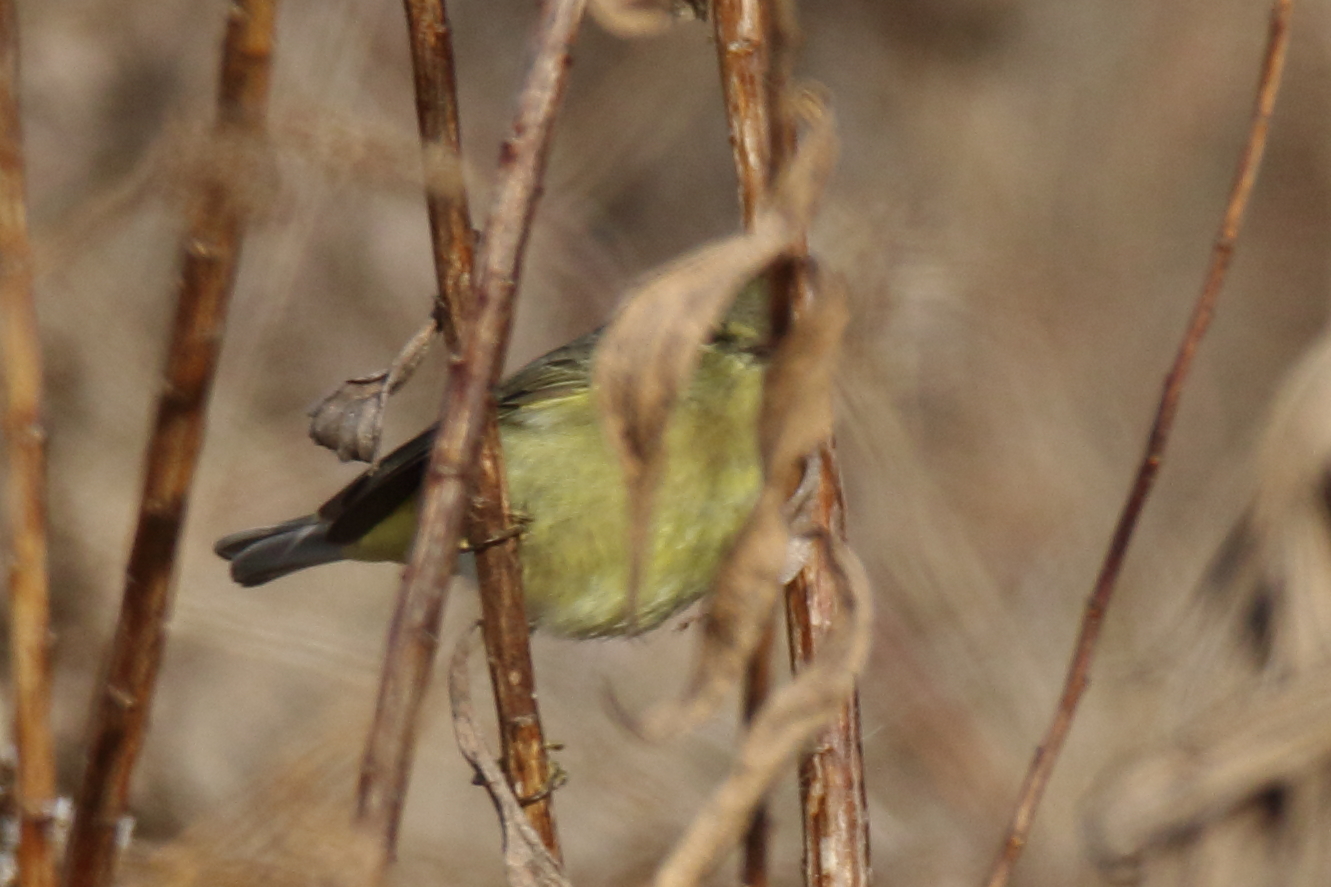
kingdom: Animalia
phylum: Chordata
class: Aves
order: Passeriformes
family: Parulidae
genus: Leiothlypis
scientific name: Leiothlypis celata
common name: Orange-crowned warbler
